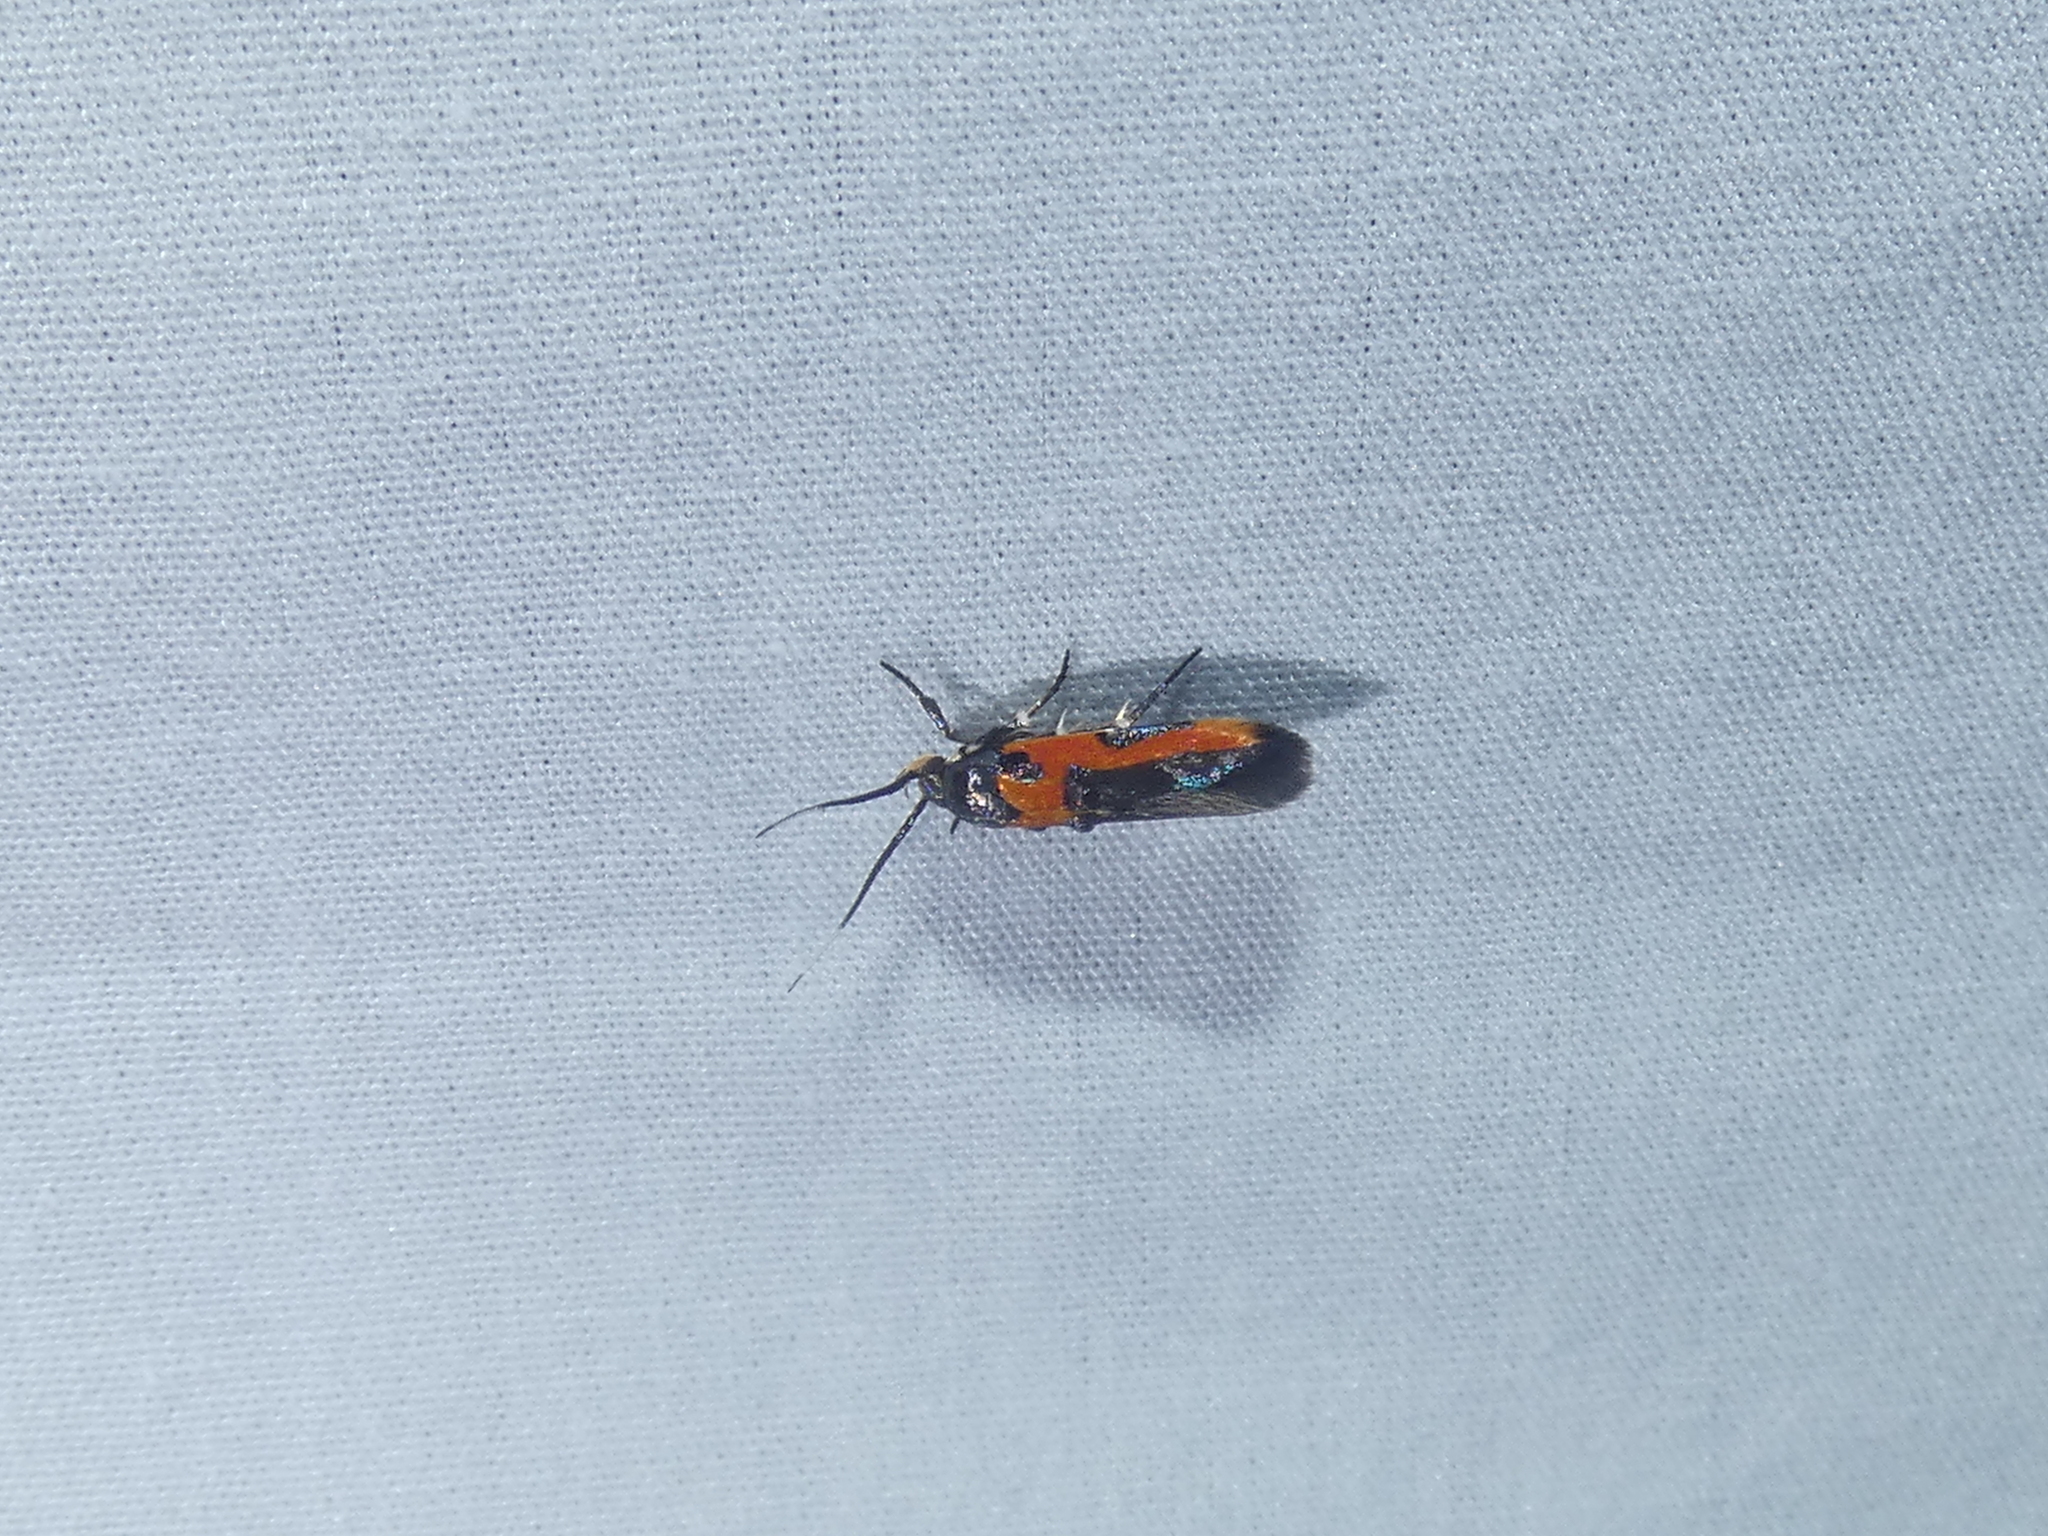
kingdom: Animalia
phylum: Arthropoda
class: Insecta
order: Lepidoptera
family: Cosmopterigidae
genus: Euclemensia
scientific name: Euclemensia bassettella
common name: Kermes scale moth
